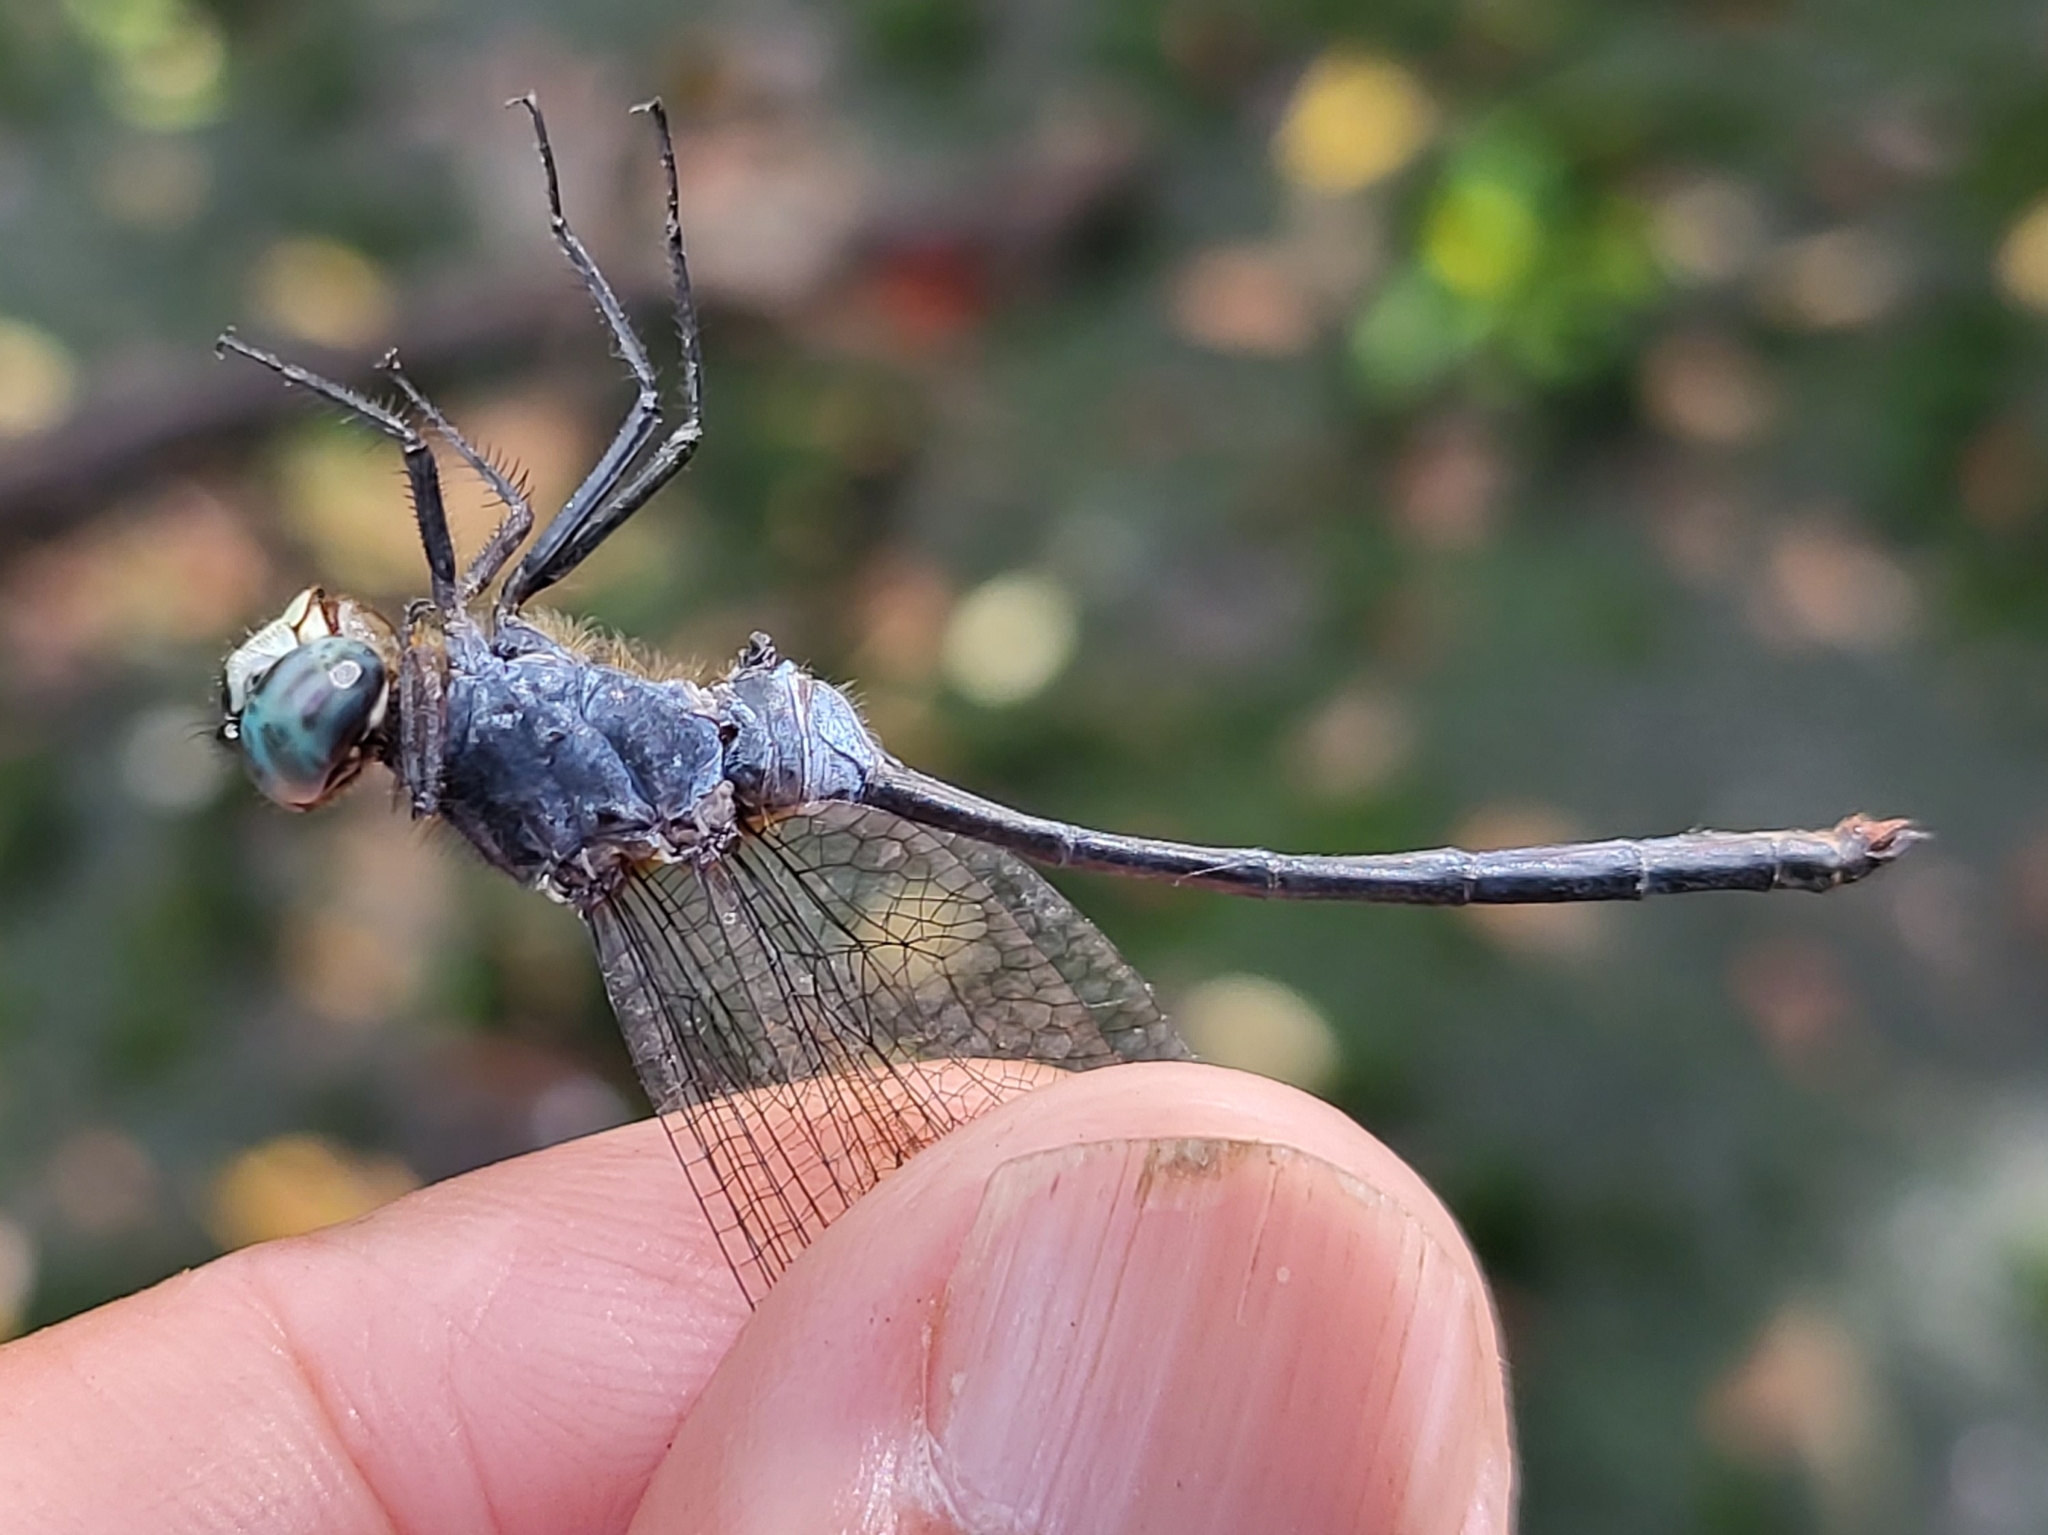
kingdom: Animalia
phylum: Arthropoda
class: Insecta
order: Odonata
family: Libellulidae
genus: Pornothemis
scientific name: Pornothemis starrei
